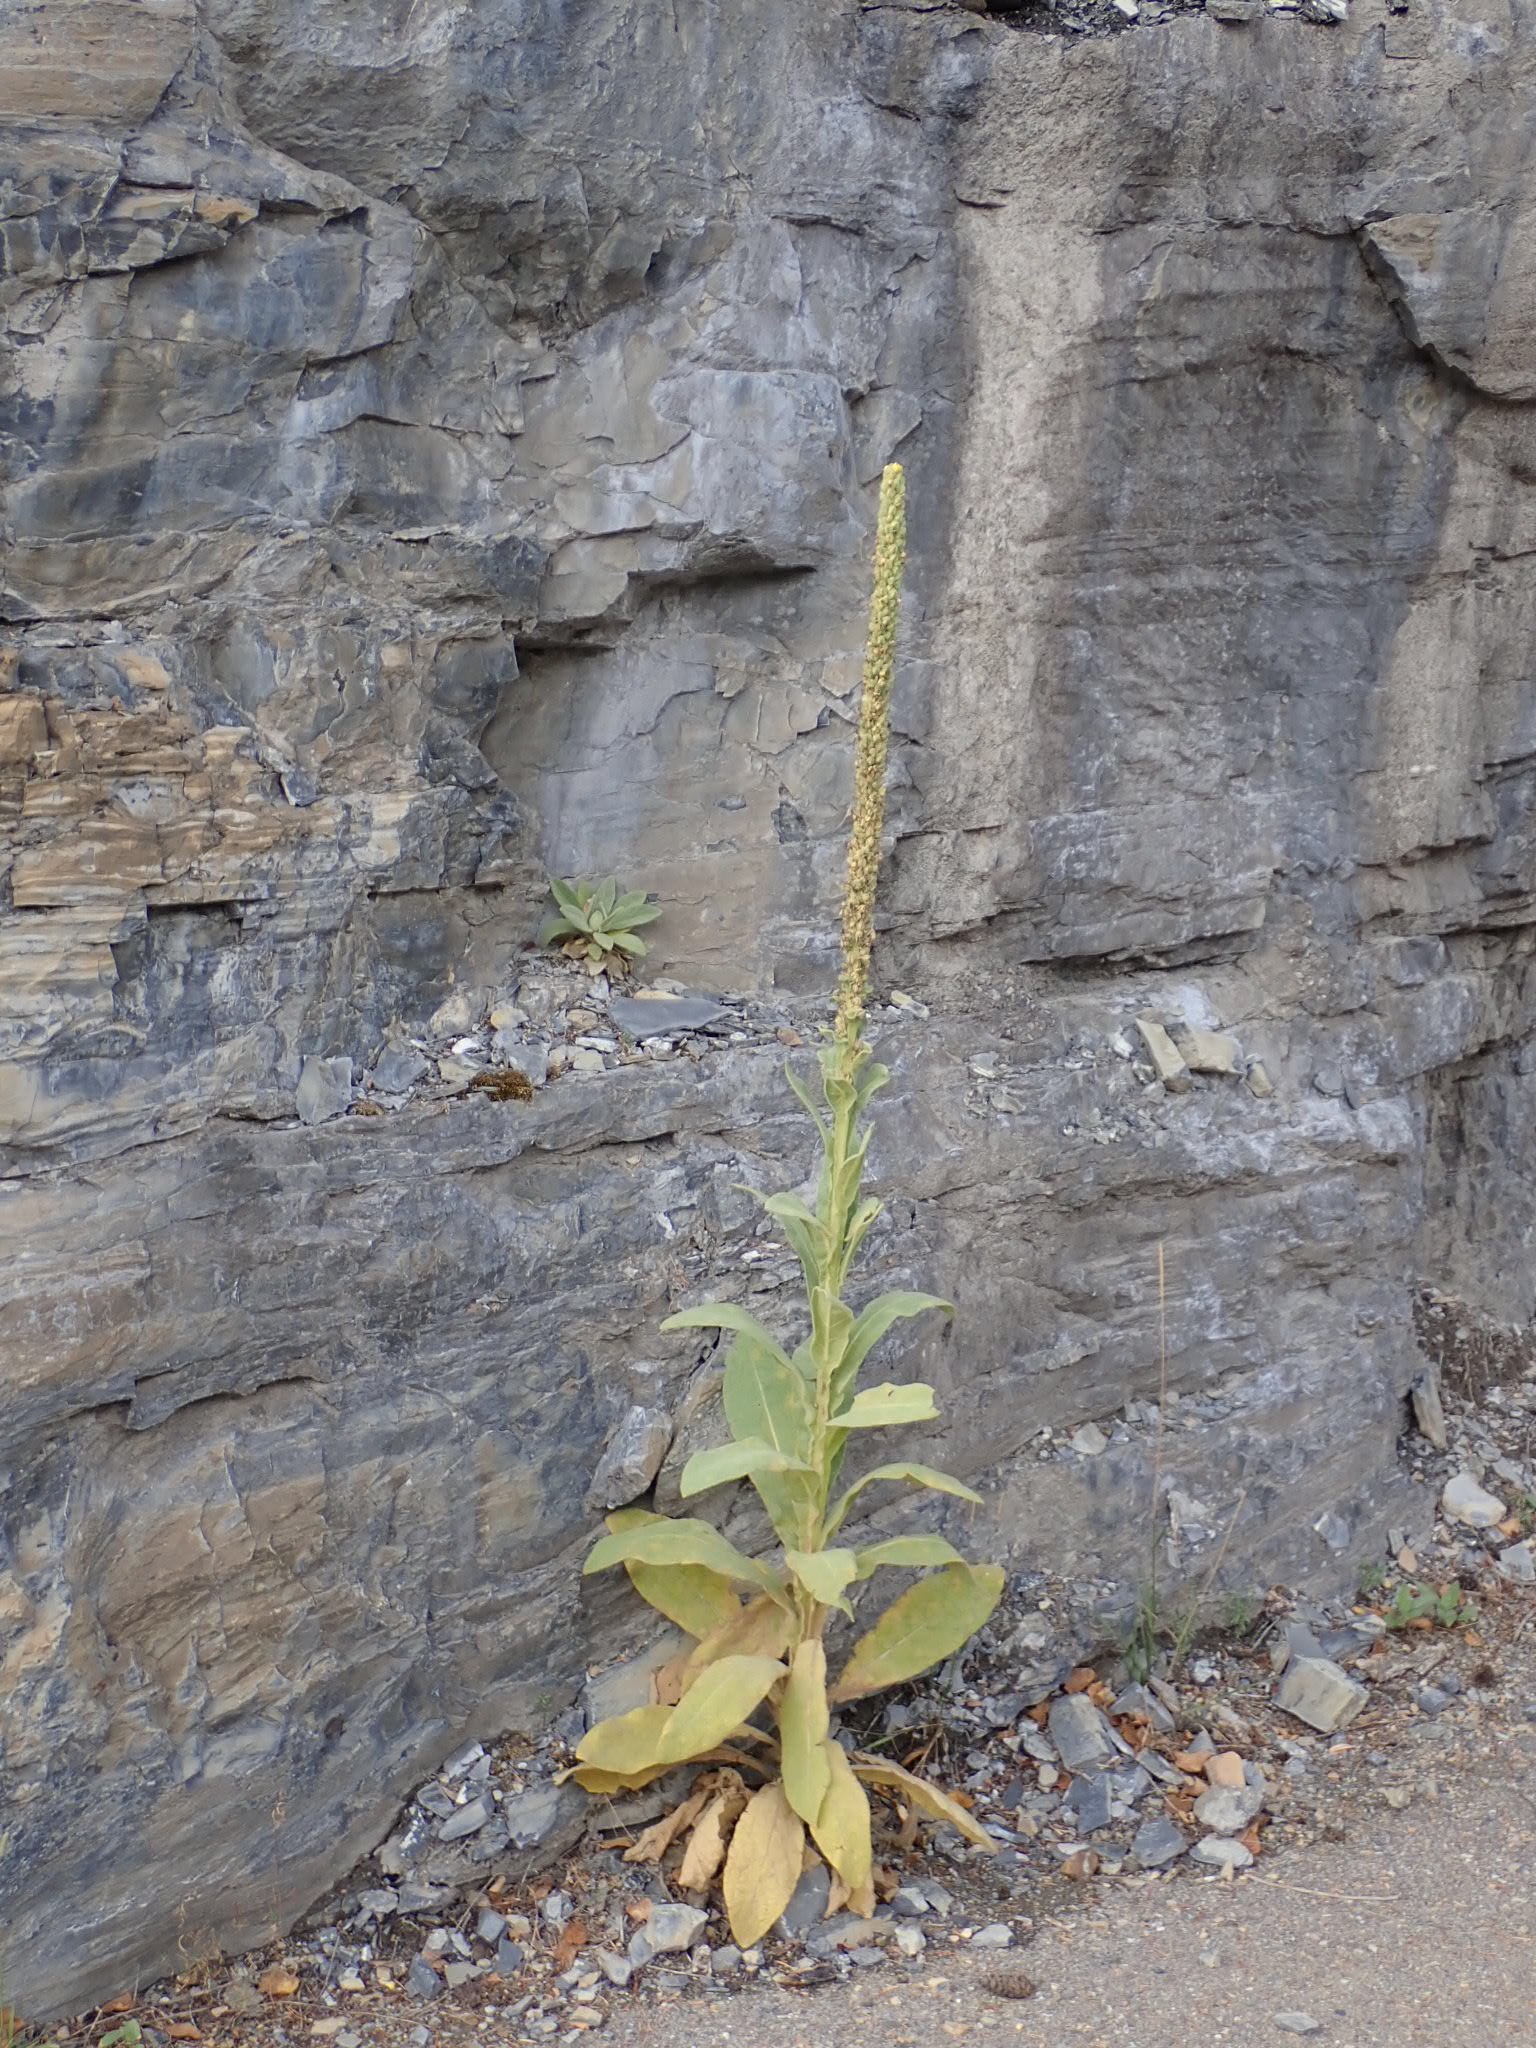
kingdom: Plantae
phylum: Tracheophyta
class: Magnoliopsida
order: Lamiales
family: Scrophulariaceae
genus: Verbascum
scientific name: Verbascum thapsus
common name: Common mullein
